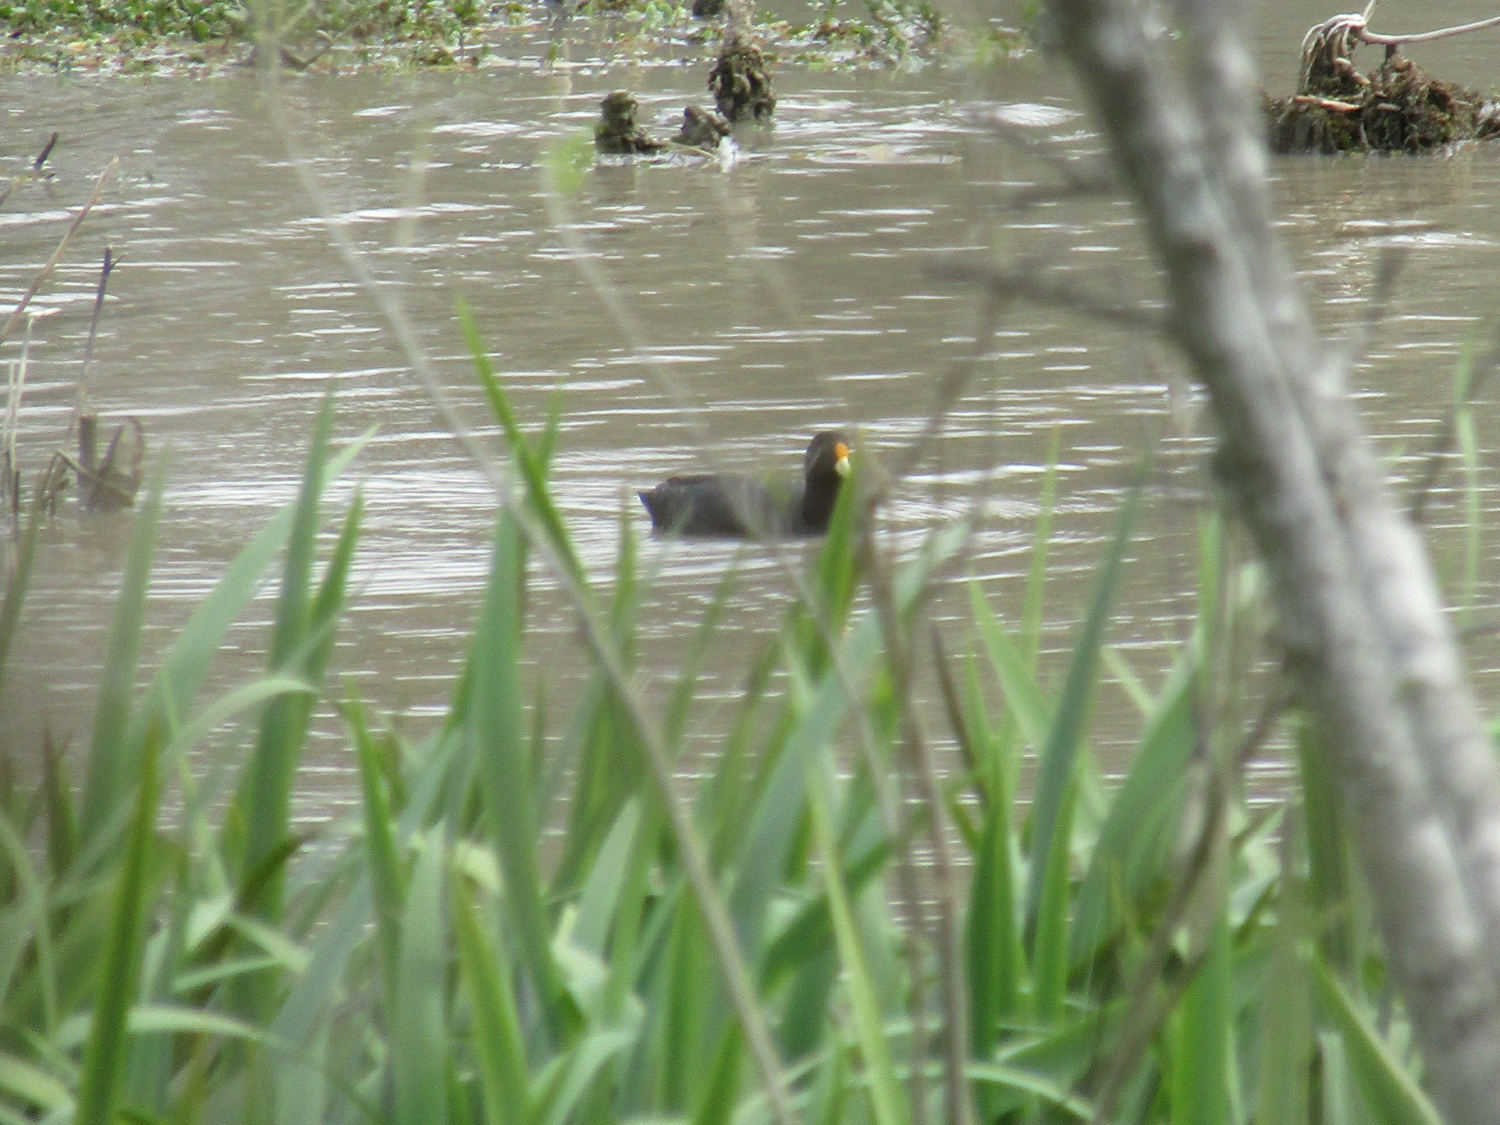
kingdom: Animalia
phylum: Chordata
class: Aves
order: Gruiformes
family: Rallidae
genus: Fulica
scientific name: Fulica leucoptera
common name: White-winged coot
